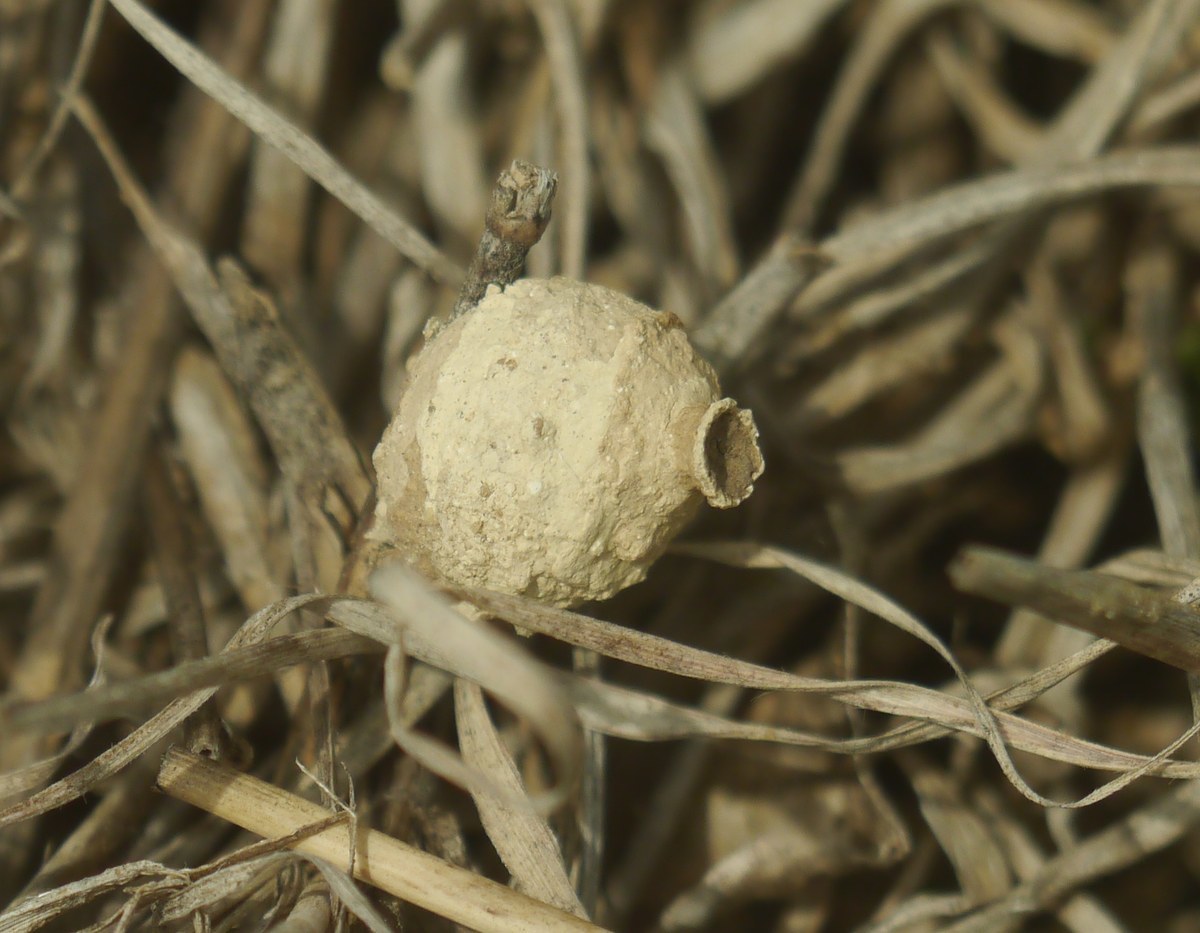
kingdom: Animalia
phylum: Arthropoda
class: Insecta
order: Hymenoptera
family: Vespidae
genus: Eumenes
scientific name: Eumenes
